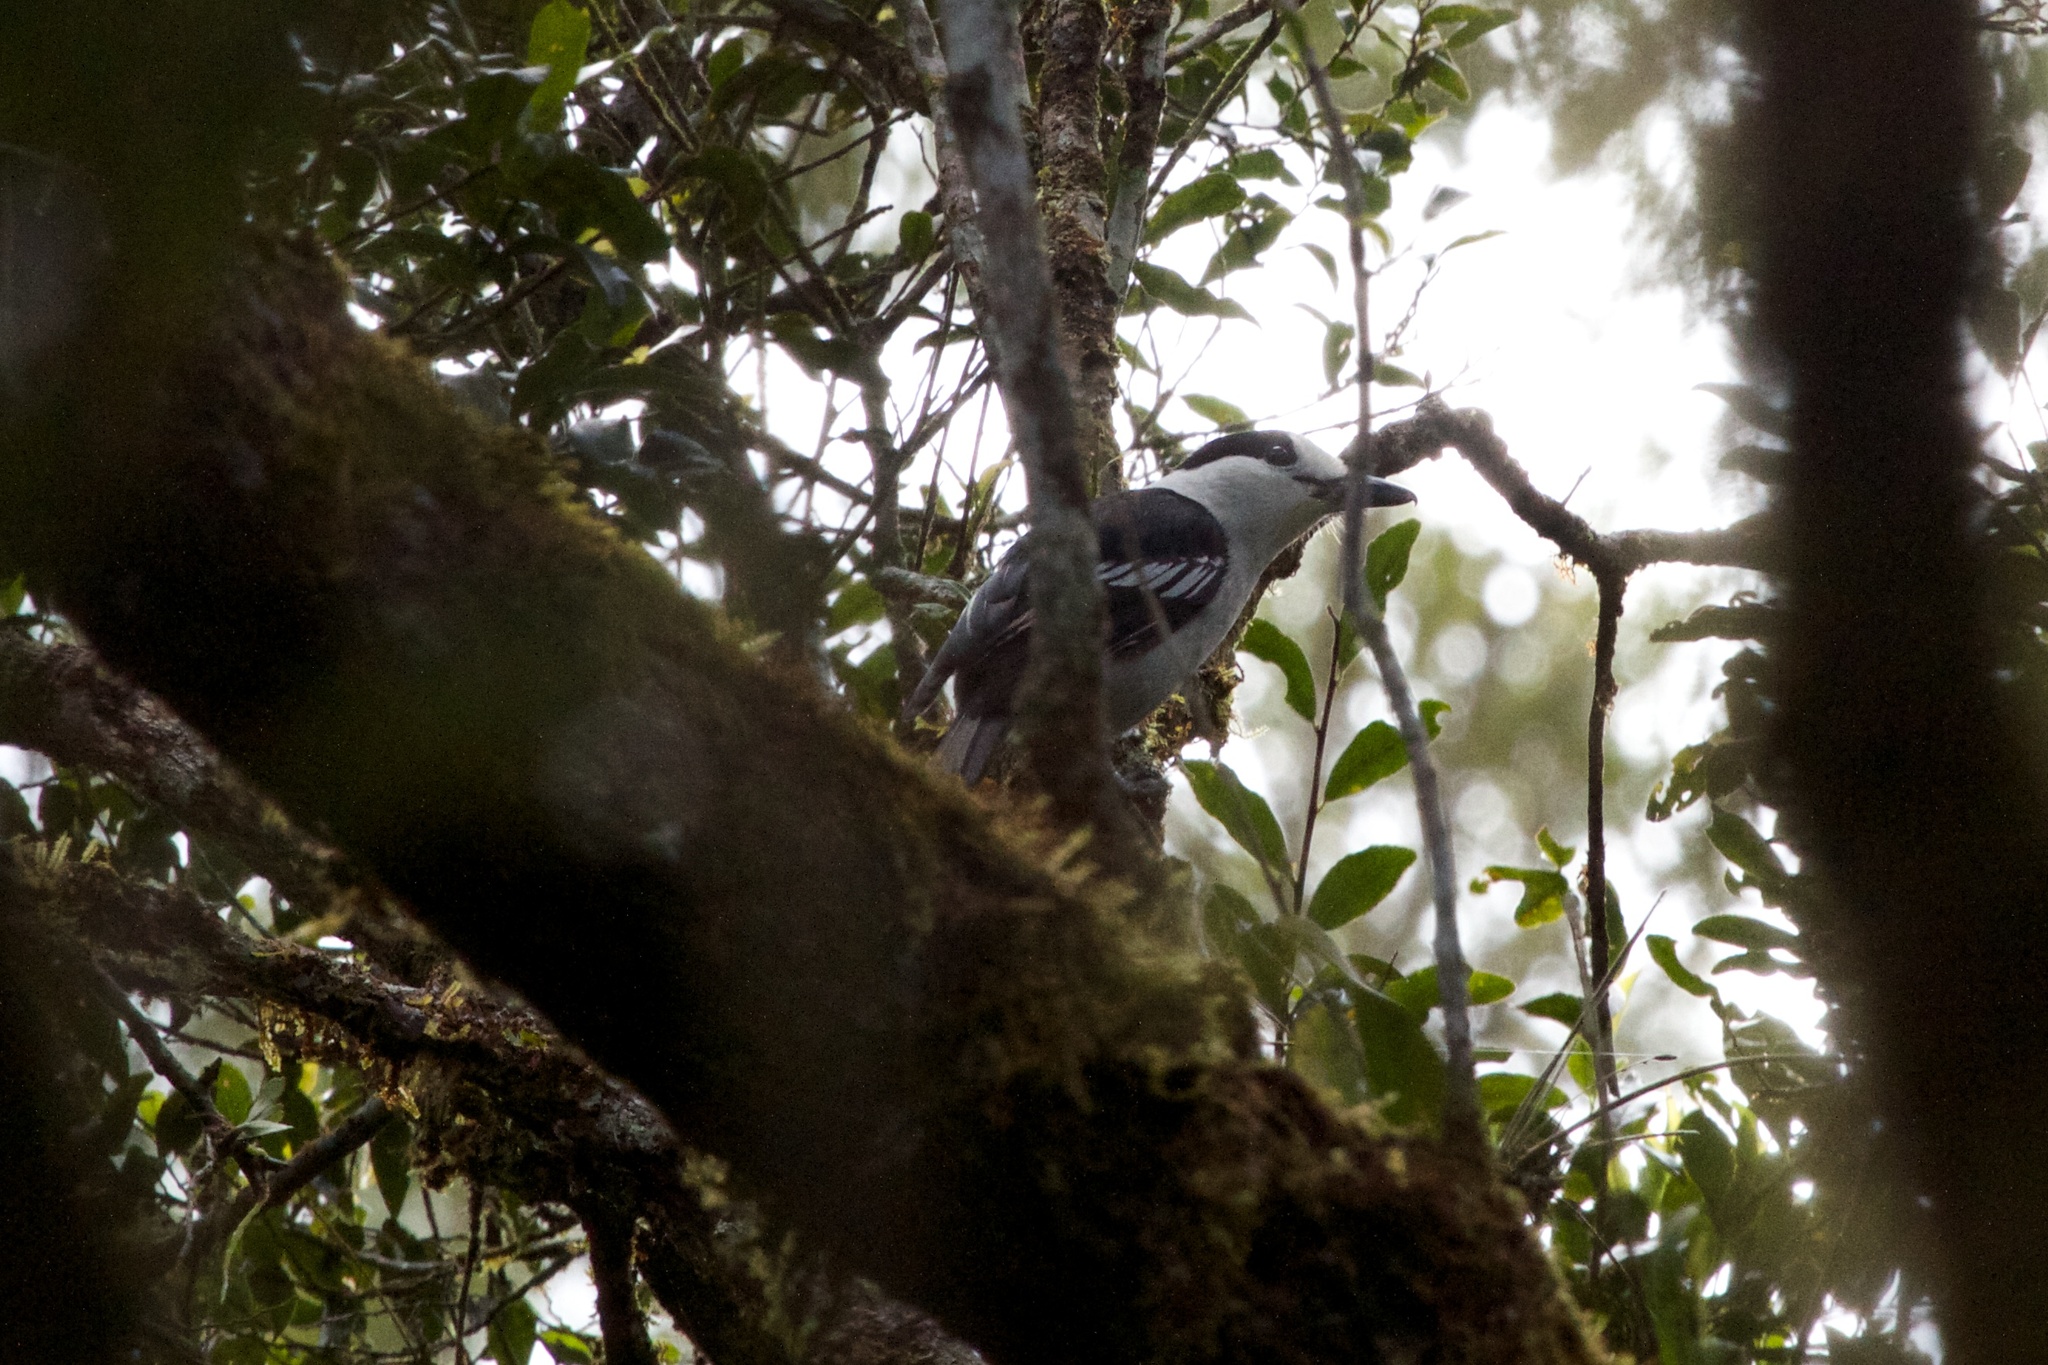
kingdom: Animalia
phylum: Chordata
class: Aves
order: Passeriformes
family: Vangidae
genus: Vanga
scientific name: Vanga curvirostris
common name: Hook-billed vanga
